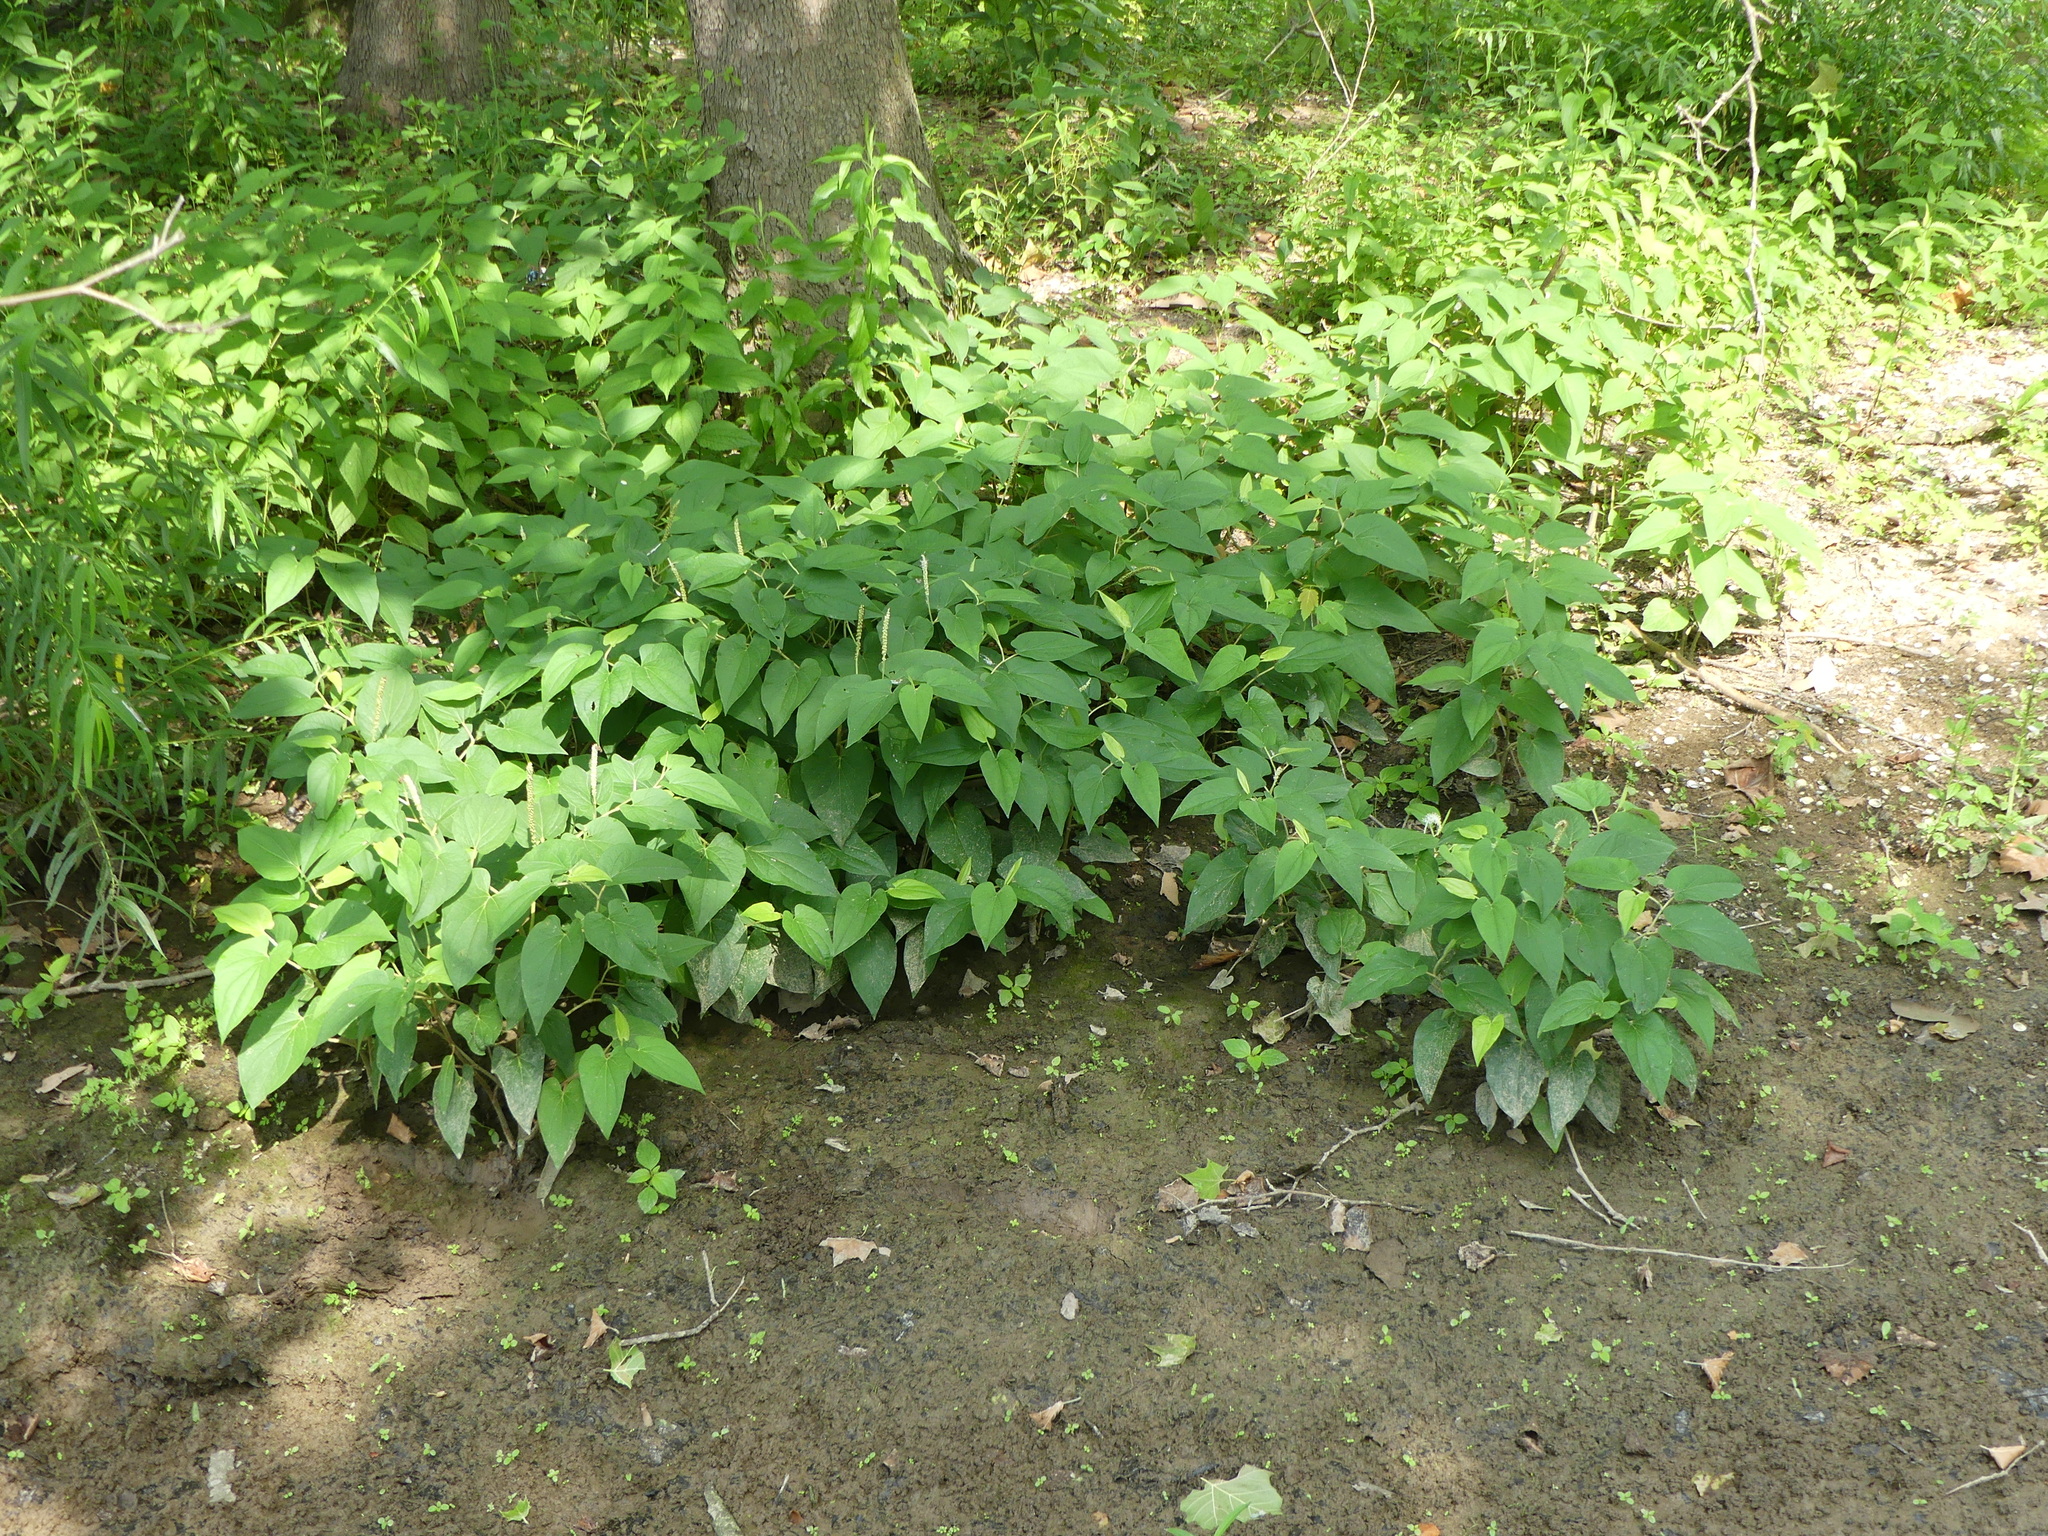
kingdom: Plantae
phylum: Tracheophyta
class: Magnoliopsida
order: Piperales
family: Saururaceae
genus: Saururus
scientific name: Saururus cernuus
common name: Lizard's-tail
